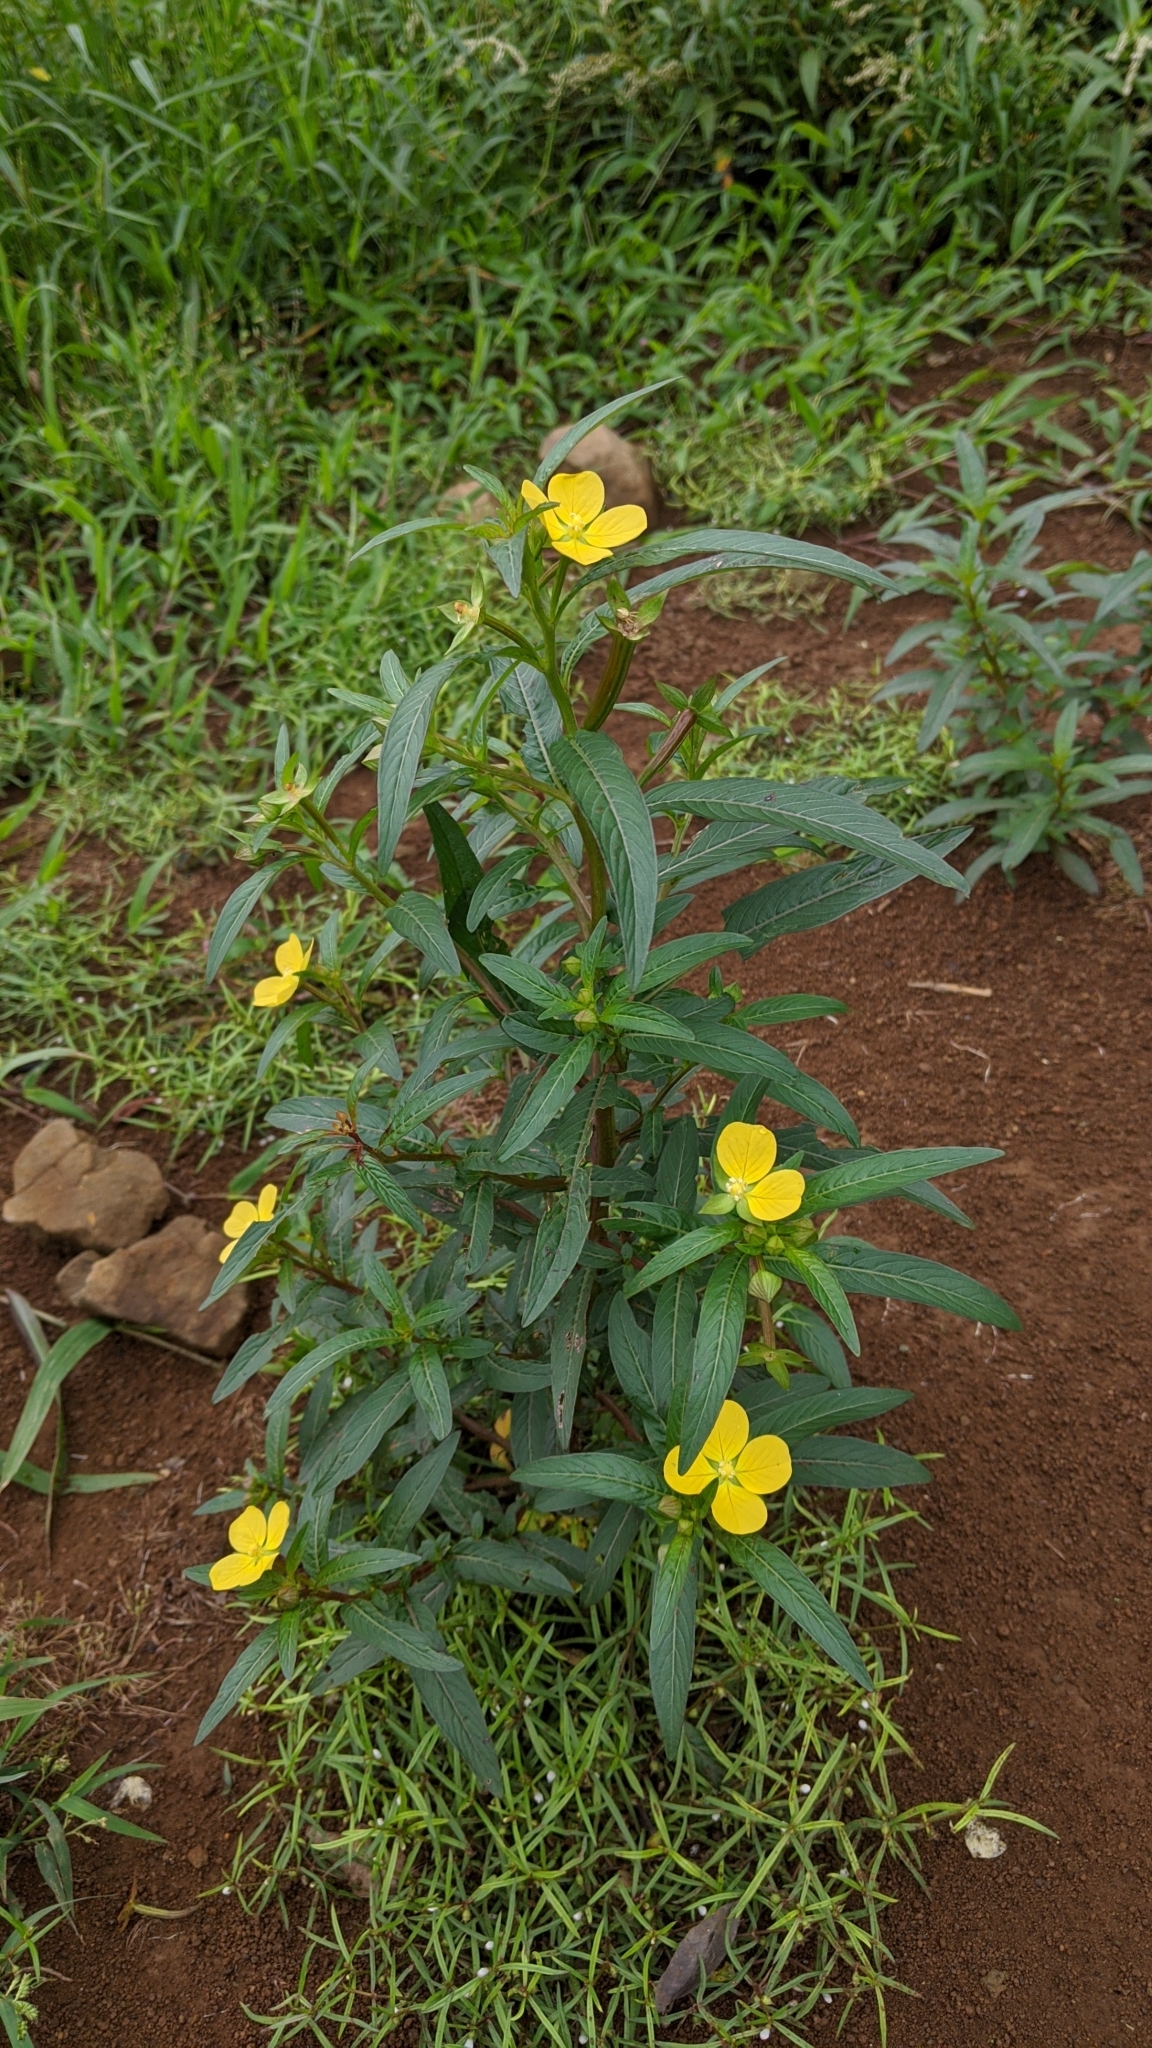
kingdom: Plantae
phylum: Tracheophyta
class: Magnoliopsida
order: Myrtales
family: Onagraceae
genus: Ludwigia
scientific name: Ludwigia octovalvis
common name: Water-primrose
